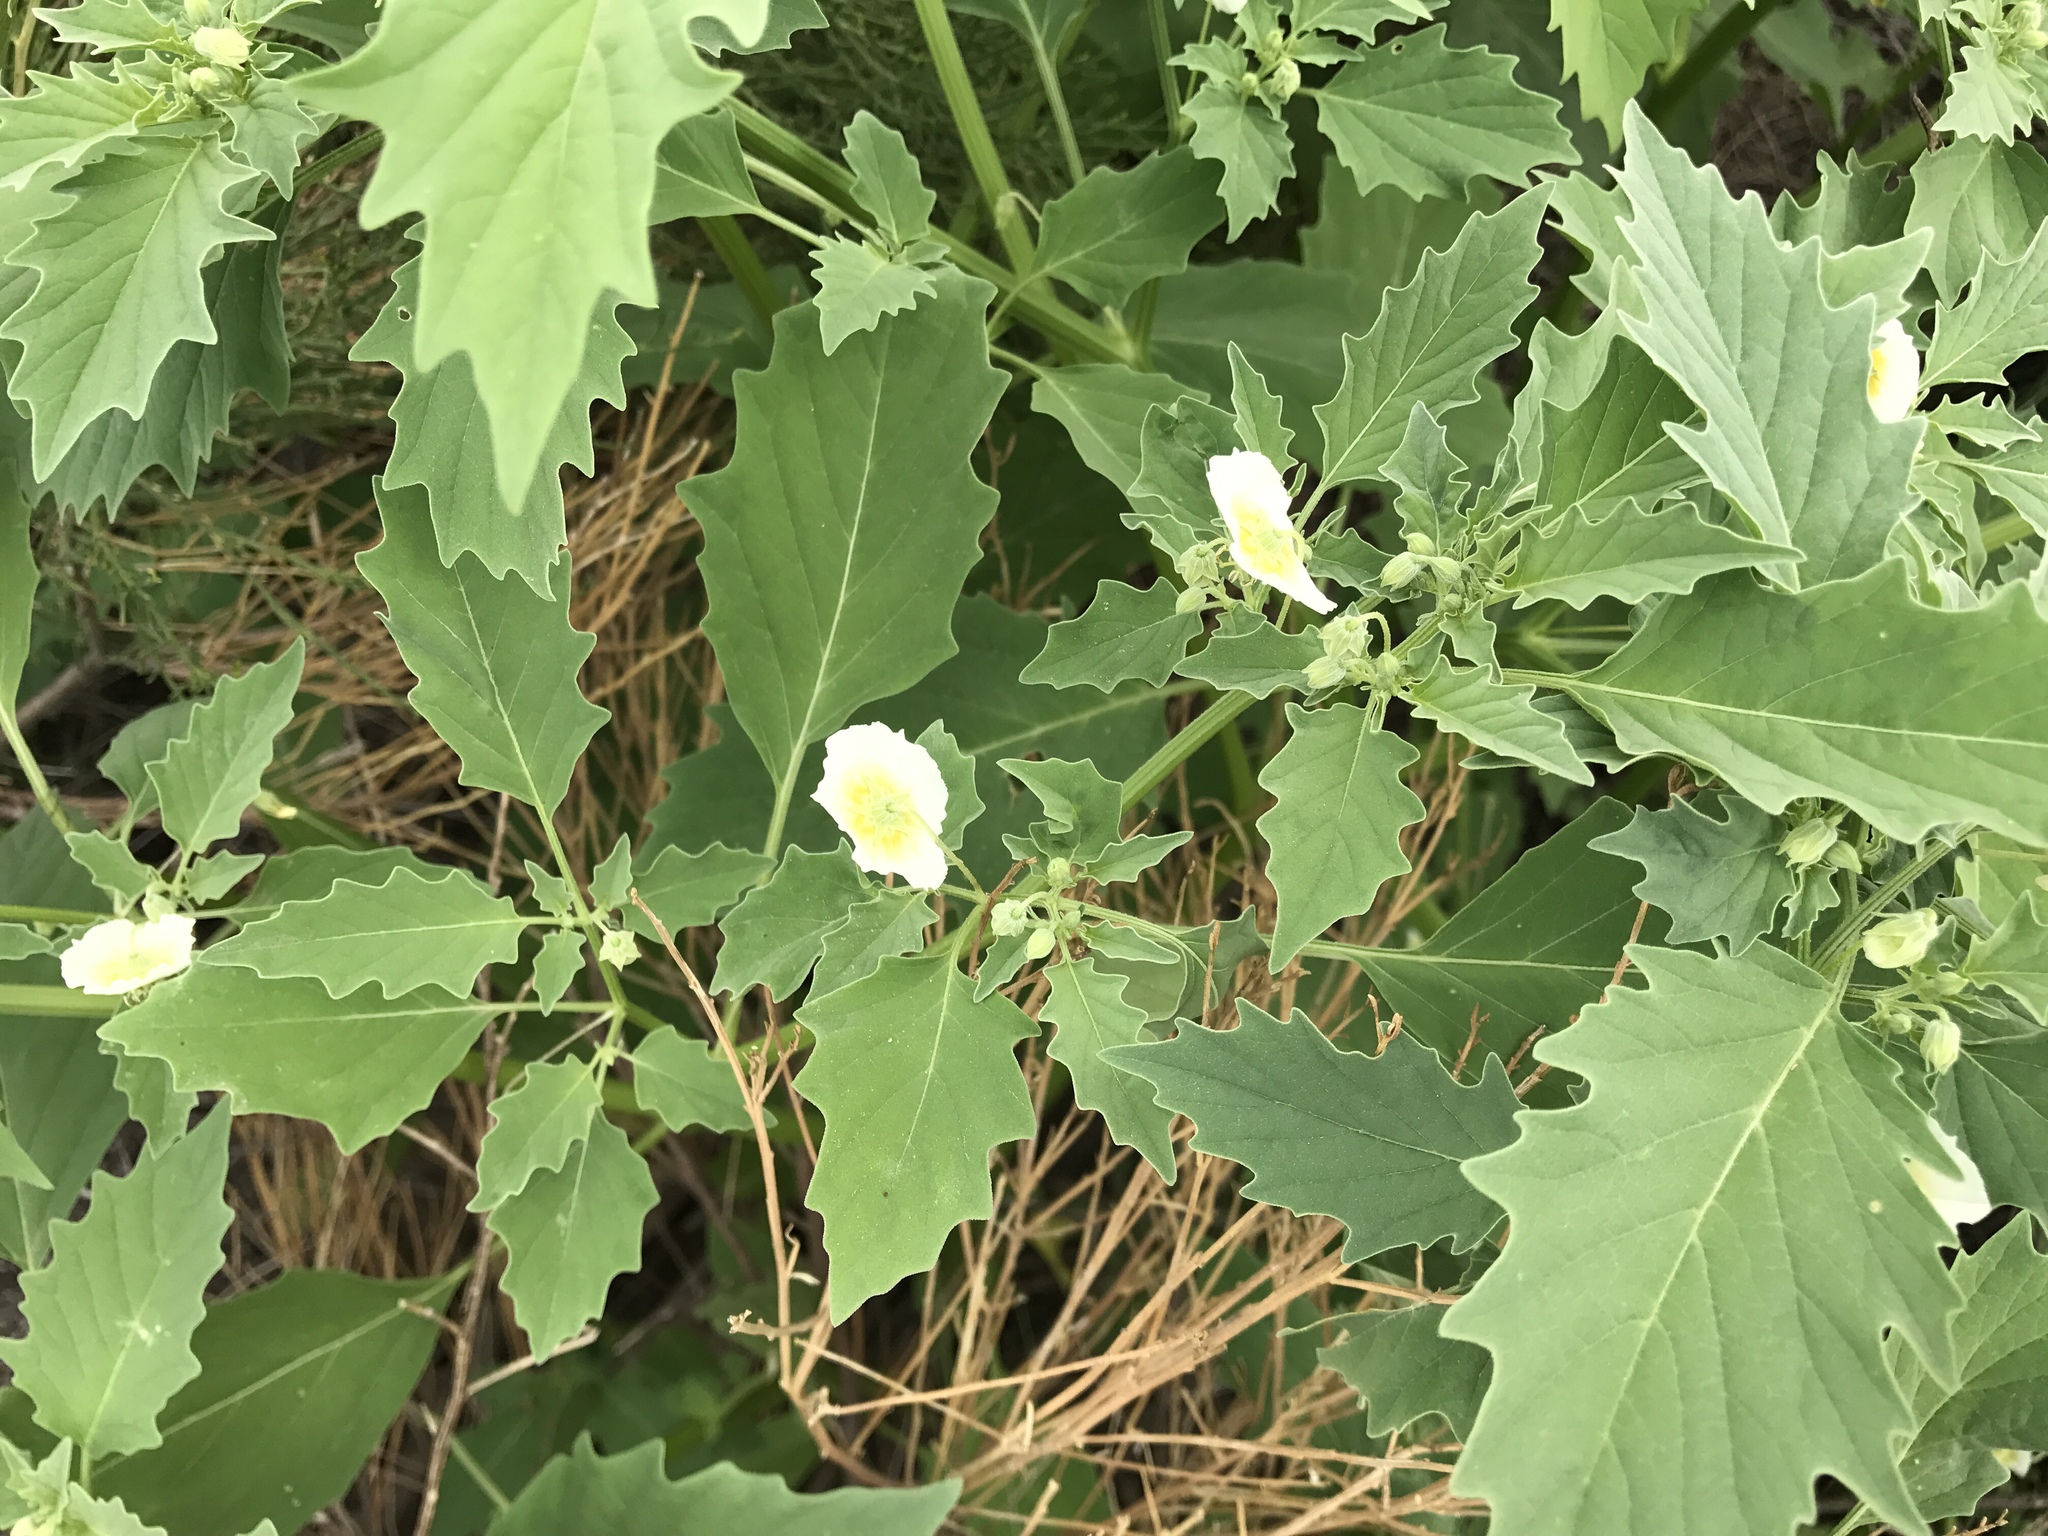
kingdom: Plantae
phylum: Tracheophyta
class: Magnoliopsida
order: Solanales
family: Solanaceae
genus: Physalis
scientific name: Physalis acutifolia
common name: Wright's ground-cherry
